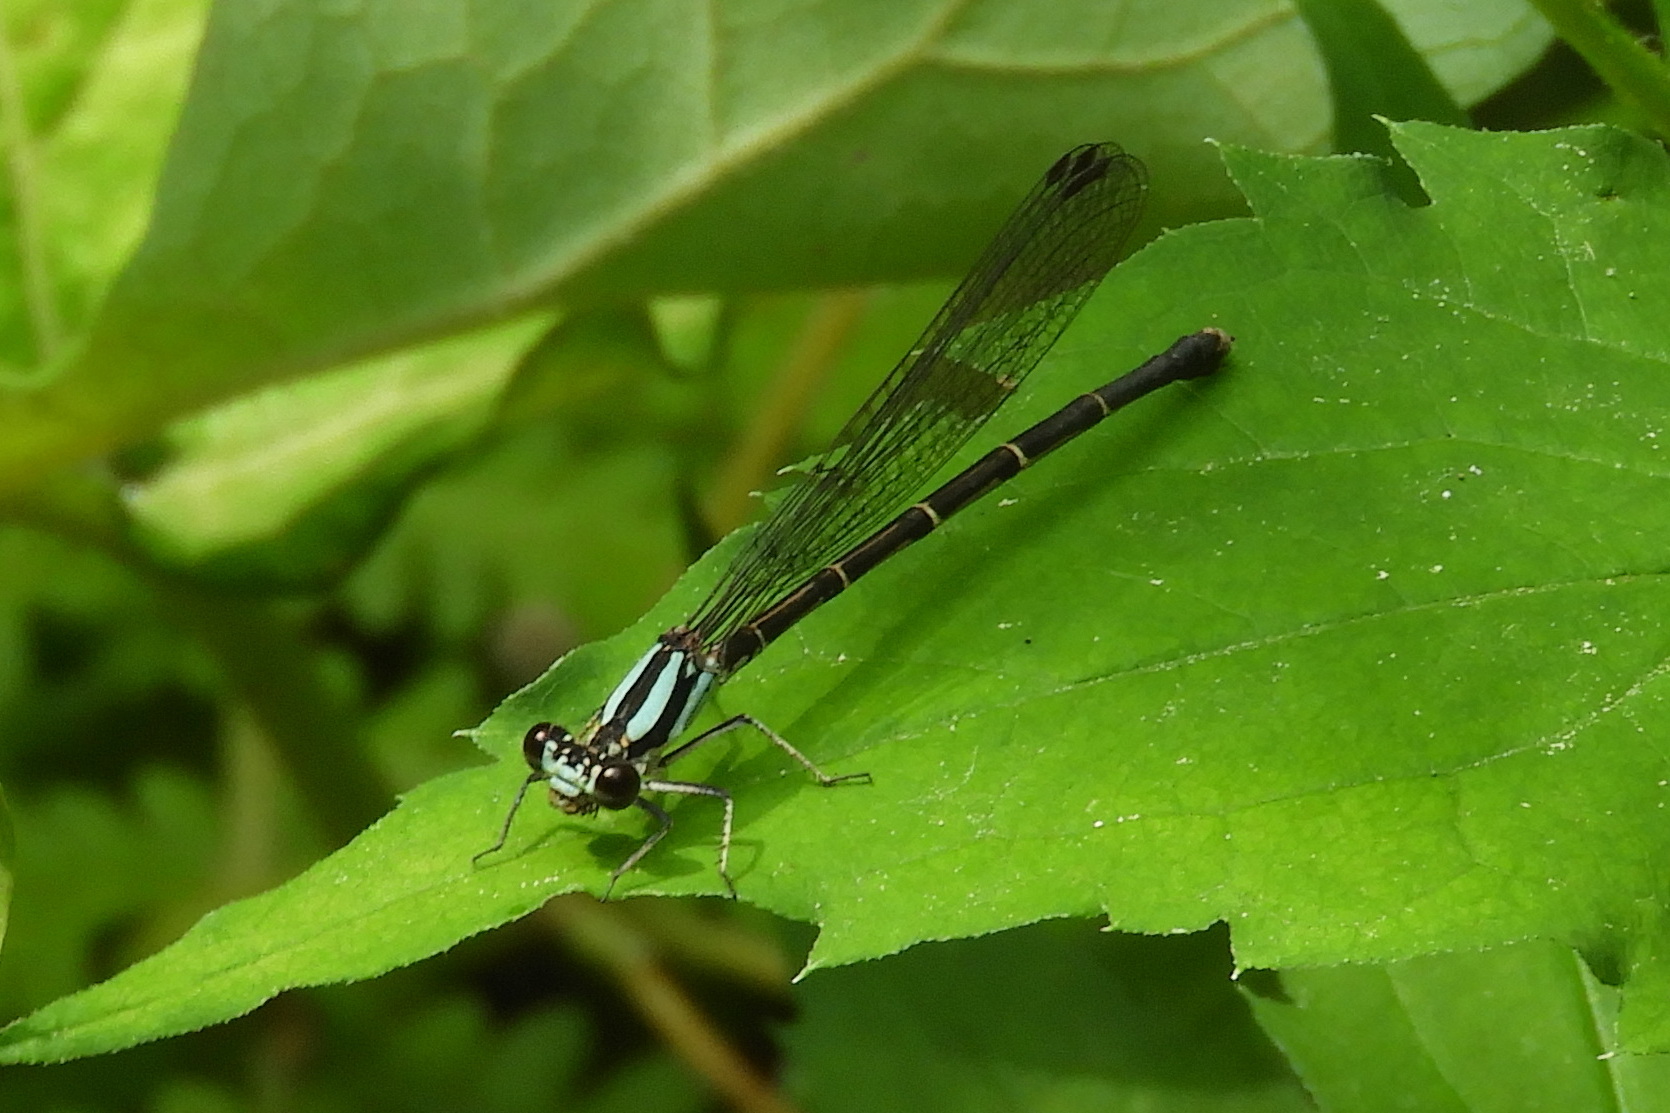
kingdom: Animalia
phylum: Arthropoda
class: Insecta
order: Odonata
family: Coenagrionidae
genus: Argia
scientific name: Argia tibialis
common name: Blue-tipped dancer
